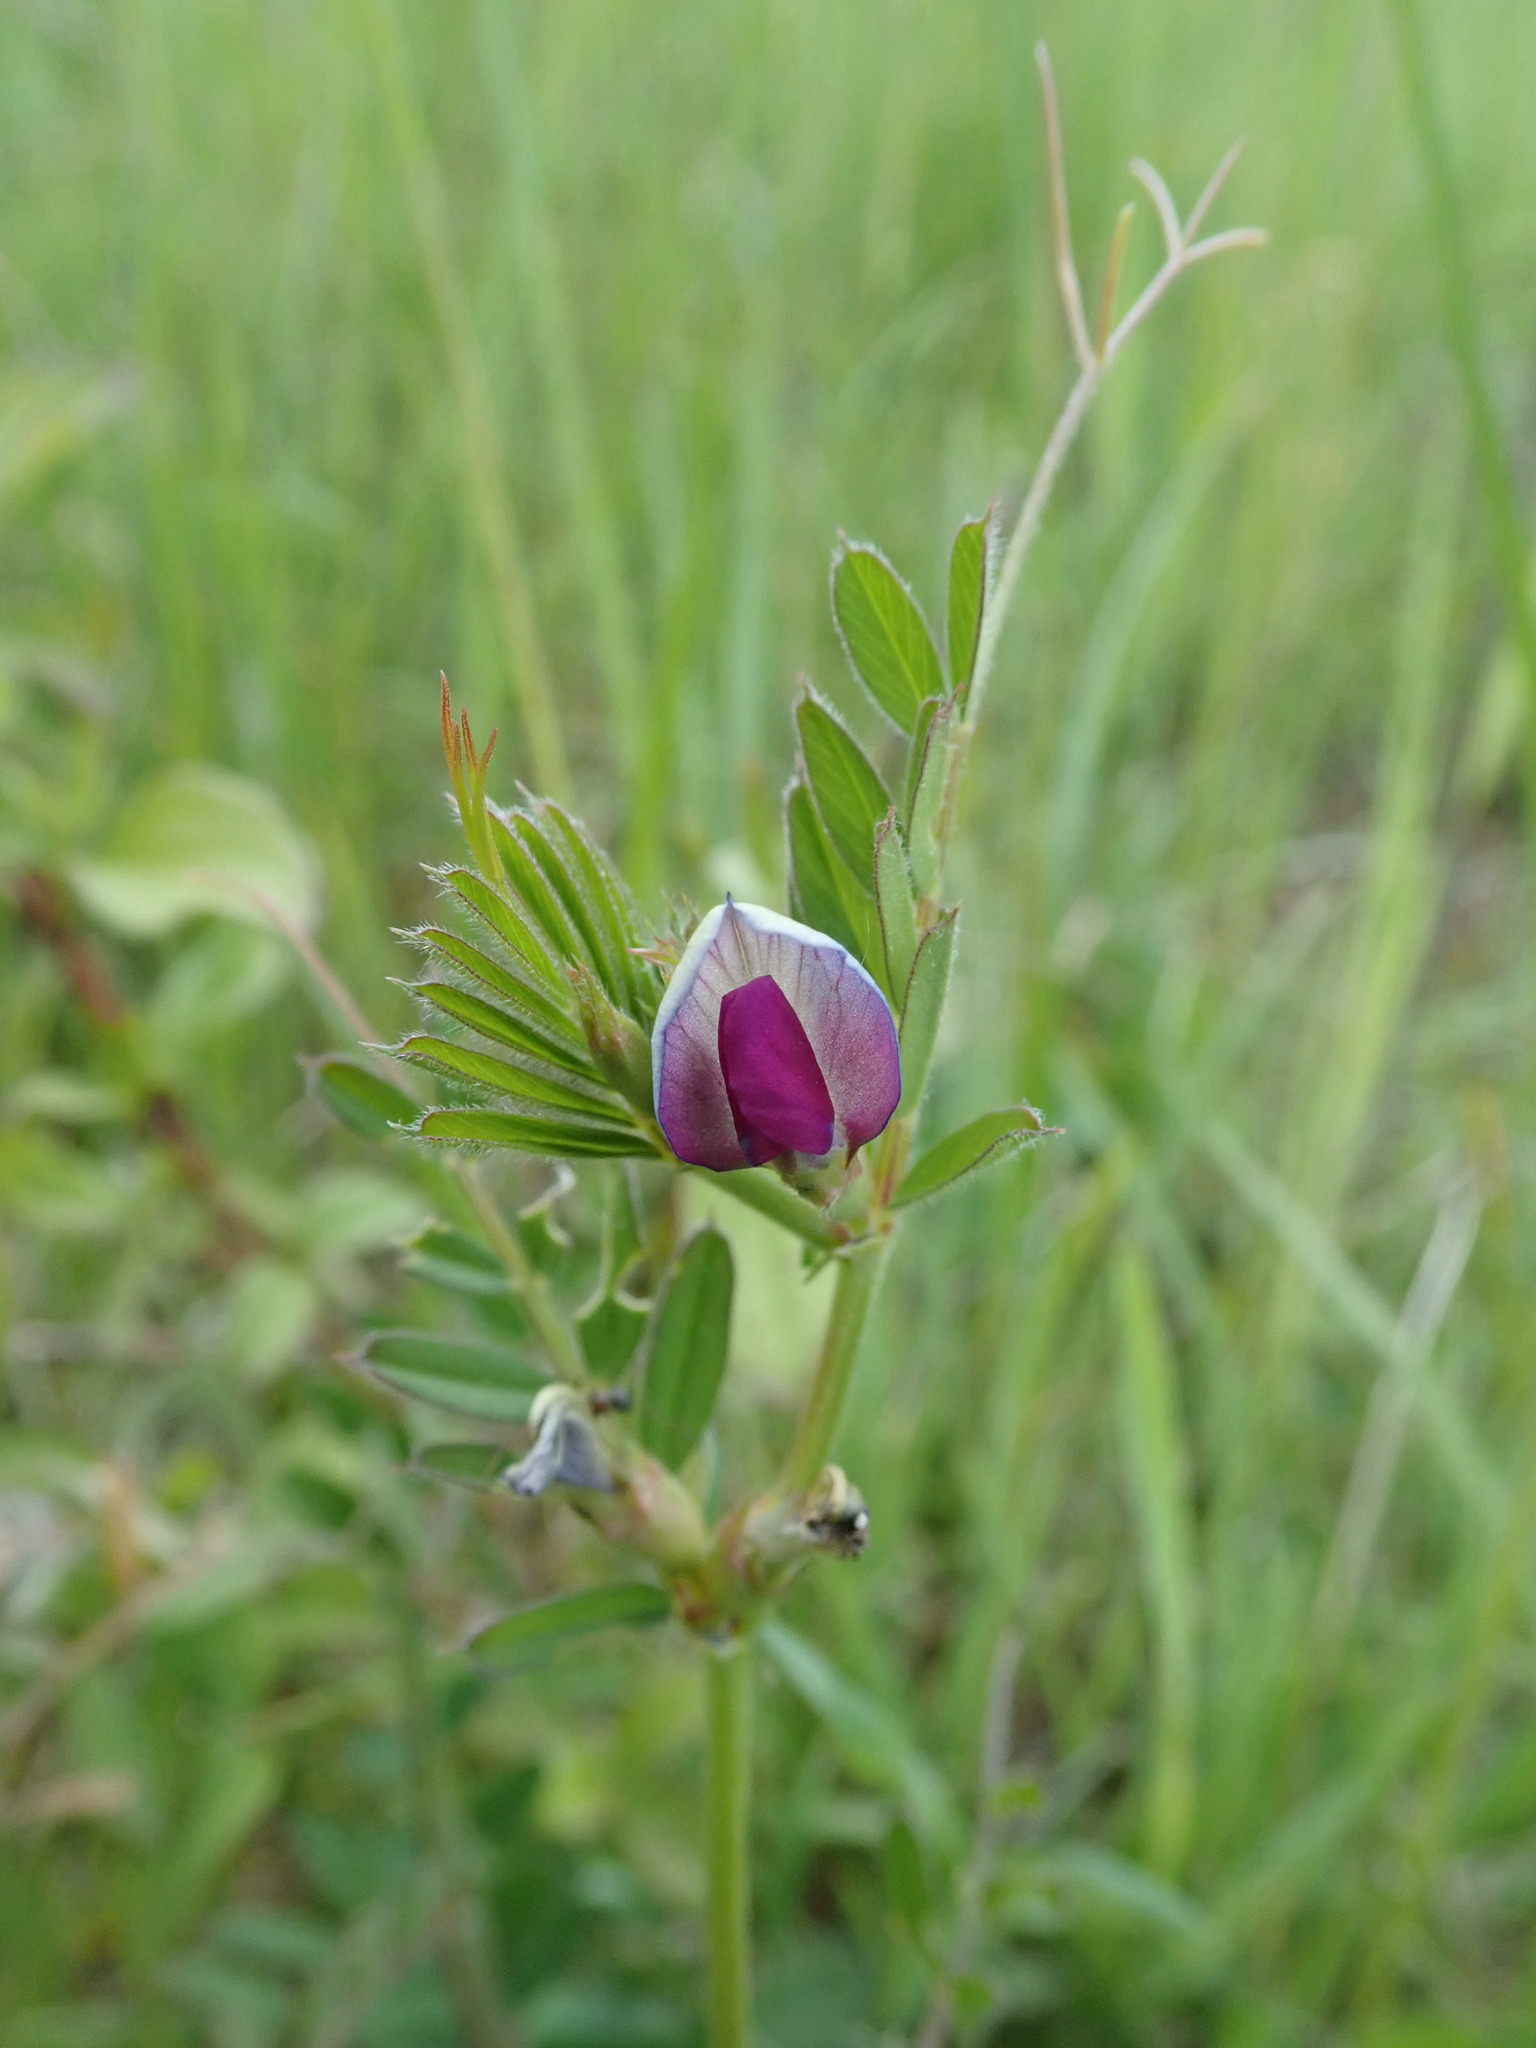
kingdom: Plantae
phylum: Tracheophyta
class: Magnoliopsida
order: Fabales
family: Fabaceae
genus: Vicia
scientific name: Vicia sativa
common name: Garden vetch
